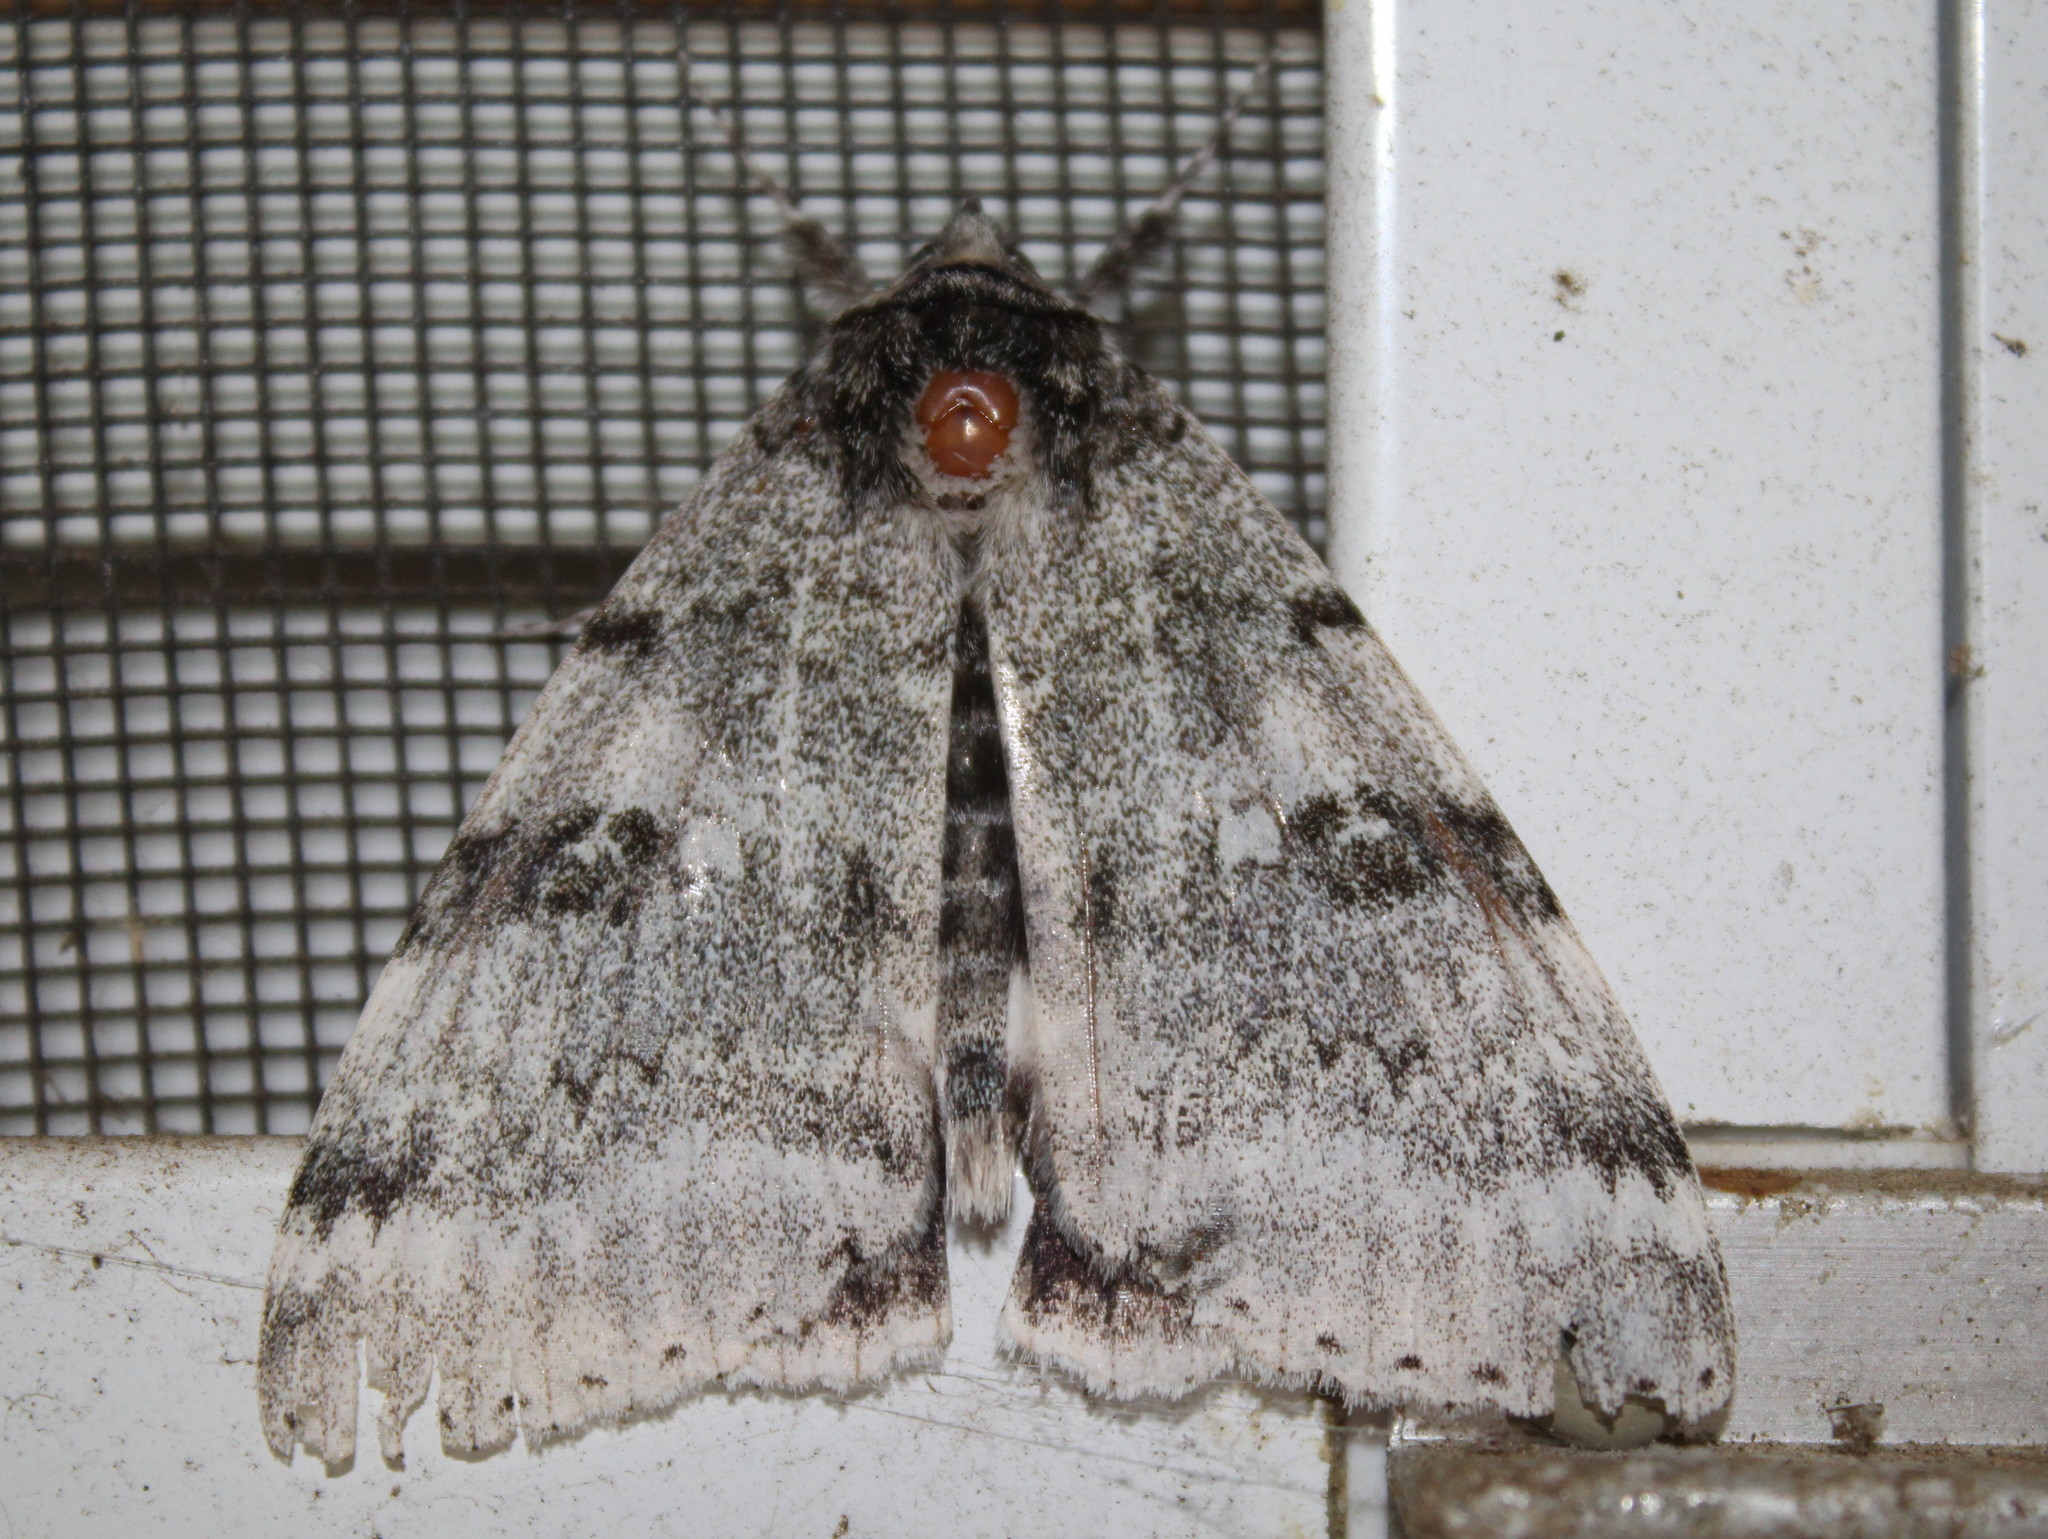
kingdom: Animalia
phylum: Arthropoda
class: Insecta
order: Lepidoptera
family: Erebidae
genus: Catocala
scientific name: Catocala relicta
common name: White underwing
